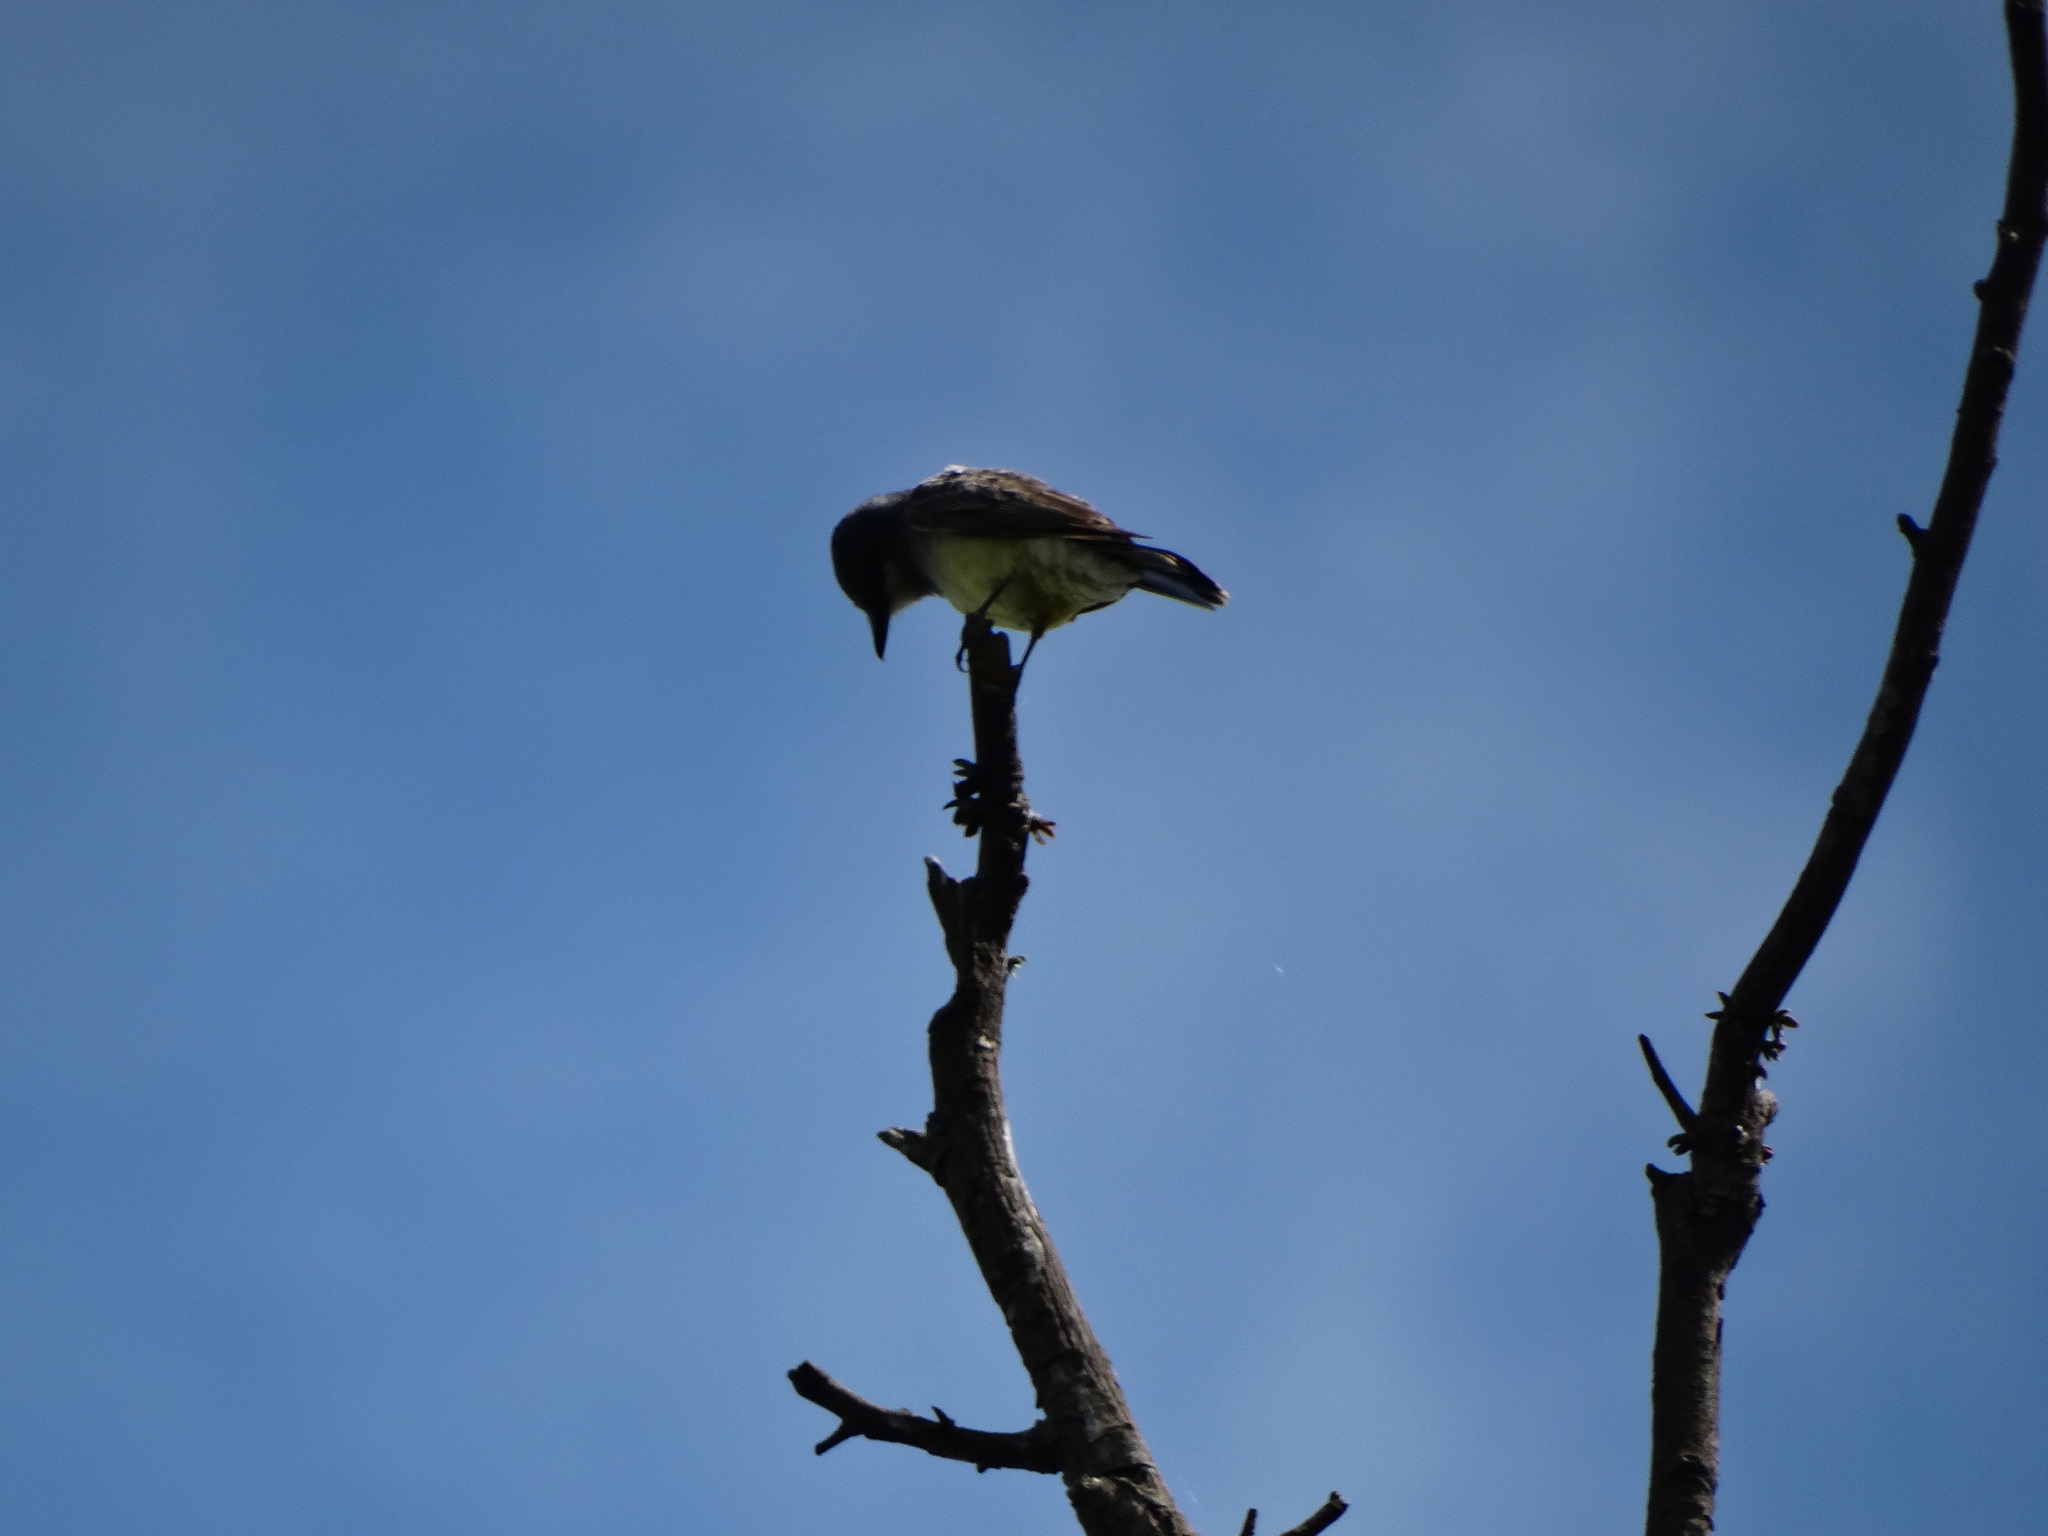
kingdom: Animalia
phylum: Chordata
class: Aves
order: Passeriformes
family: Tyrannidae
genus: Tyrannus
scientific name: Tyrannus vociferans
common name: Cassin's kingbird
